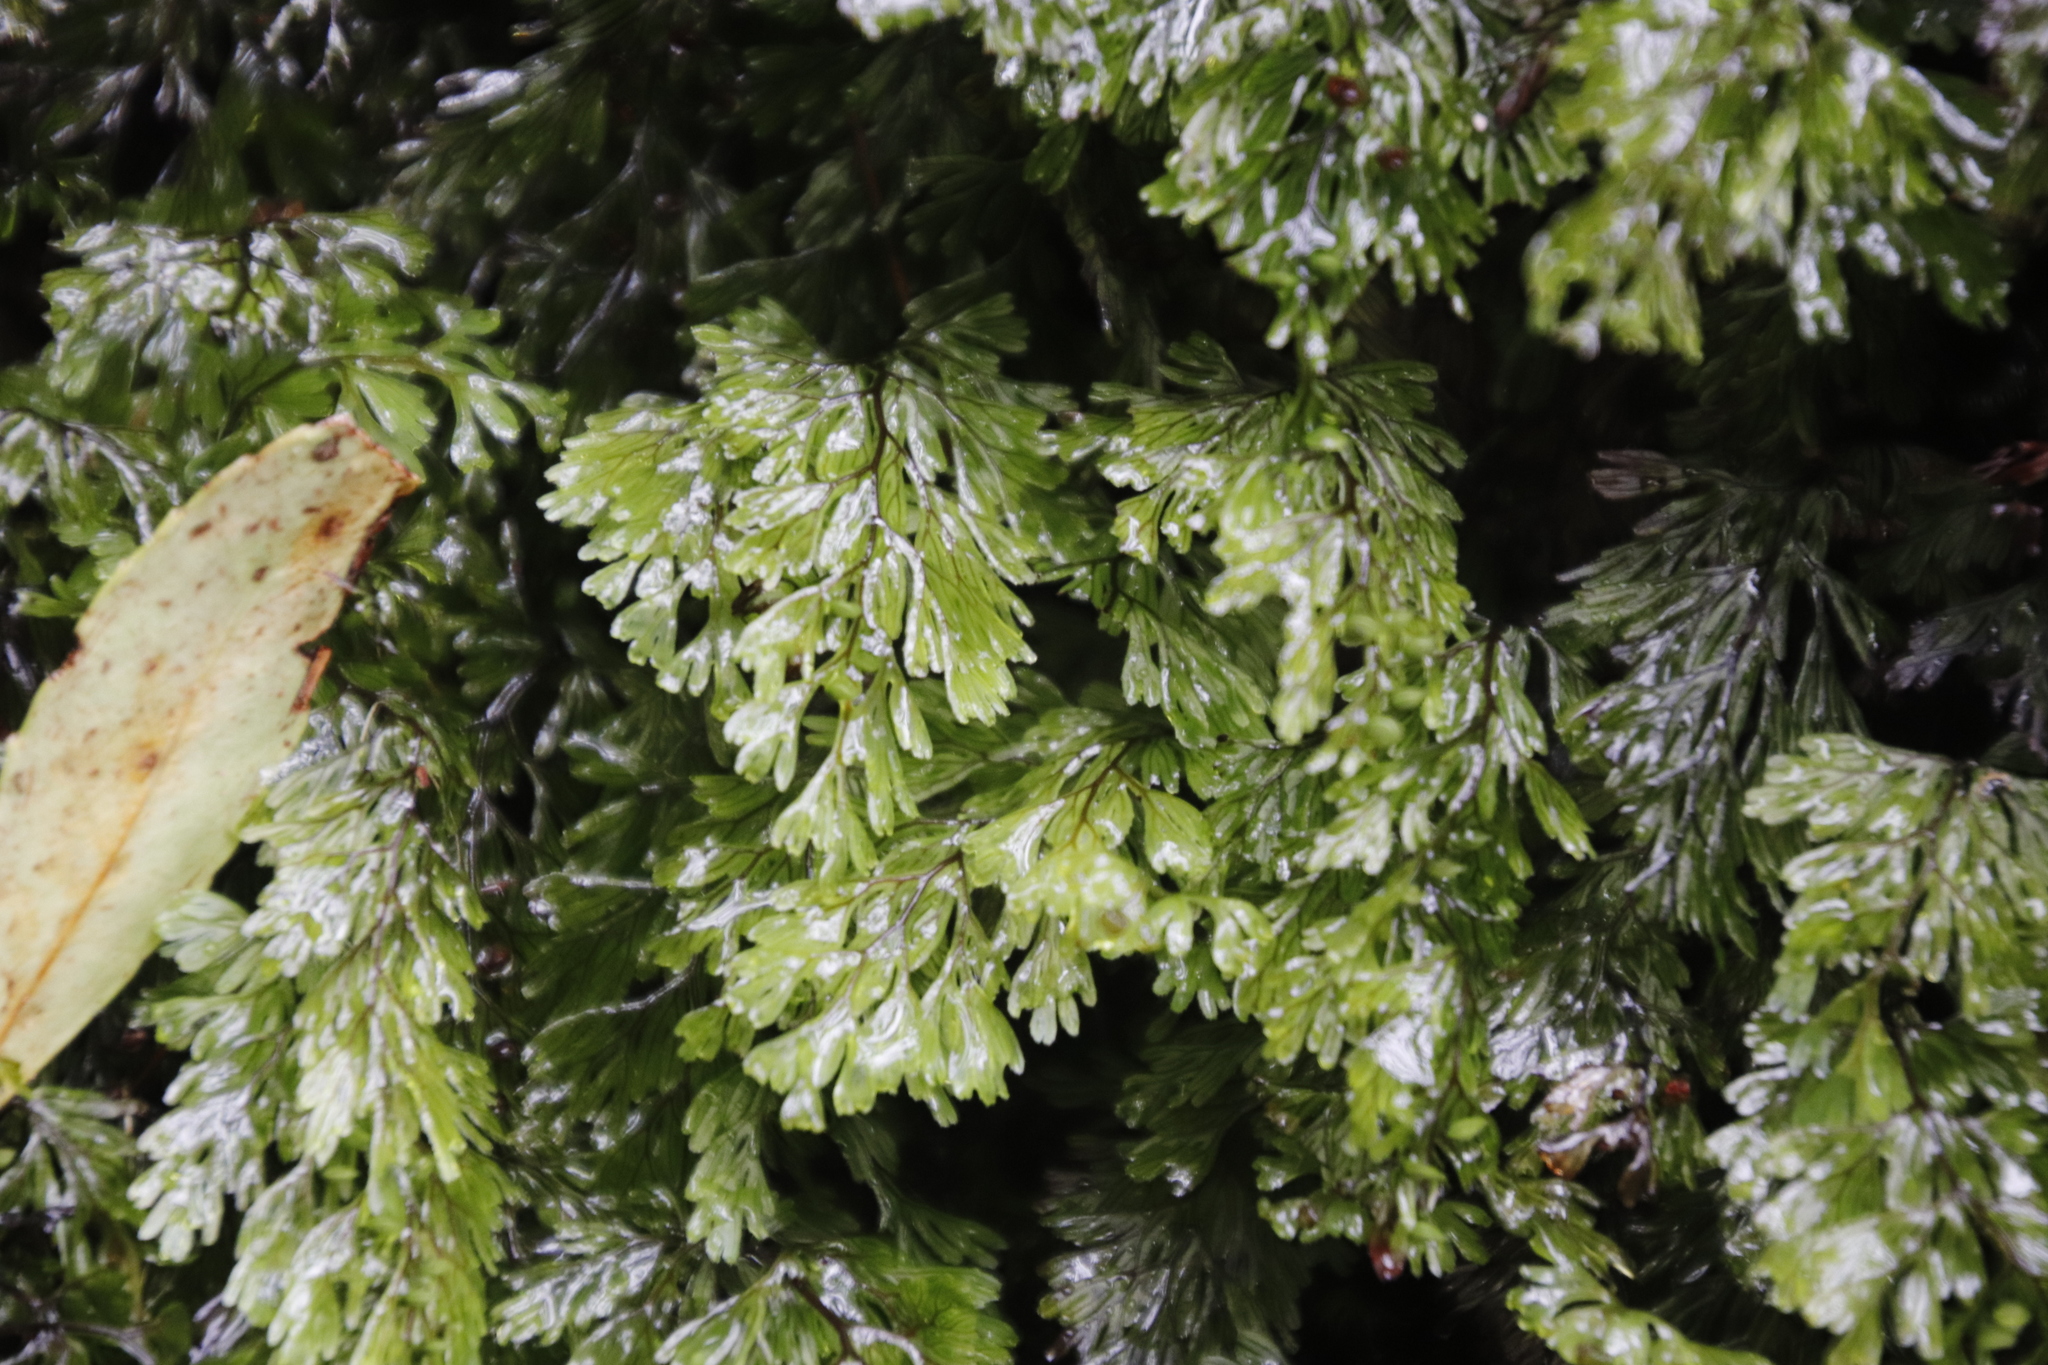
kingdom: Plantae
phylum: Tracheophyta
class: Polypodiopsida
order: Hymenophyllales
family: Hymenophyllaceae
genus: Hymenophyllum
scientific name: Hymenophyllum tunbrigense
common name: Tunbridge filmy fern
